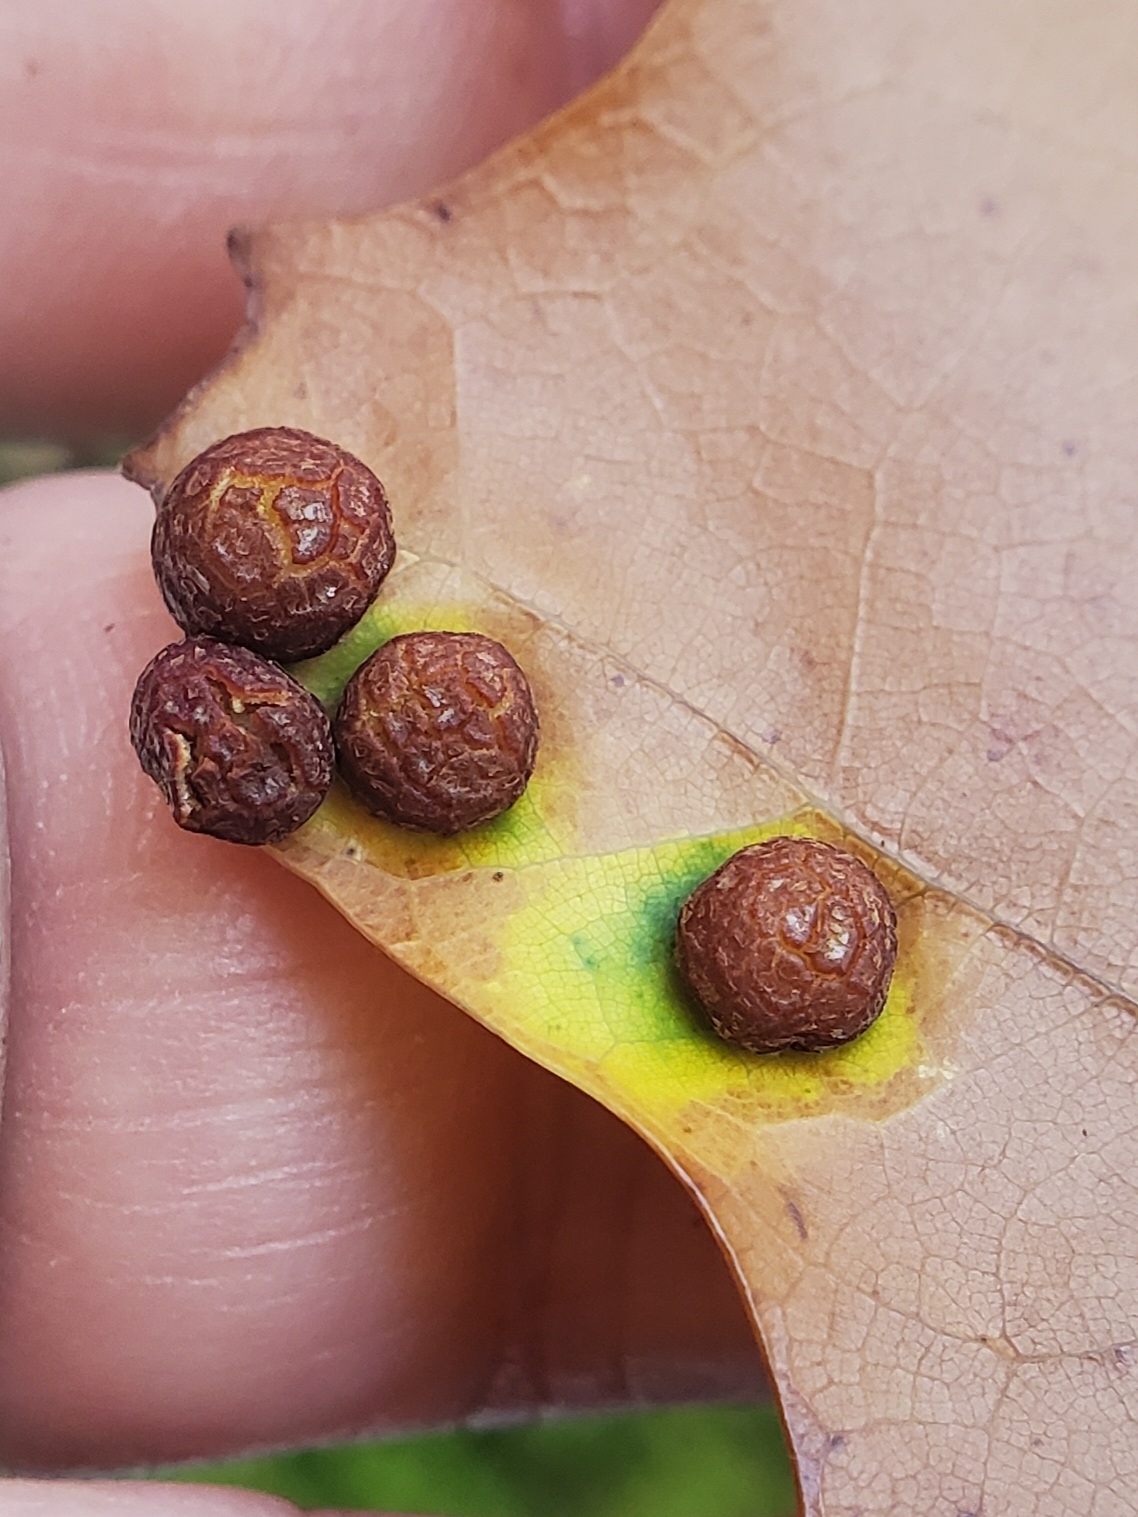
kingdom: Animalia
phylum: Arthropoda
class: Insecta
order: Diptera
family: Cecidomyiidae
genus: Polystepha
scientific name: Polystepha pilulae
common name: Oak leaf gall midge
